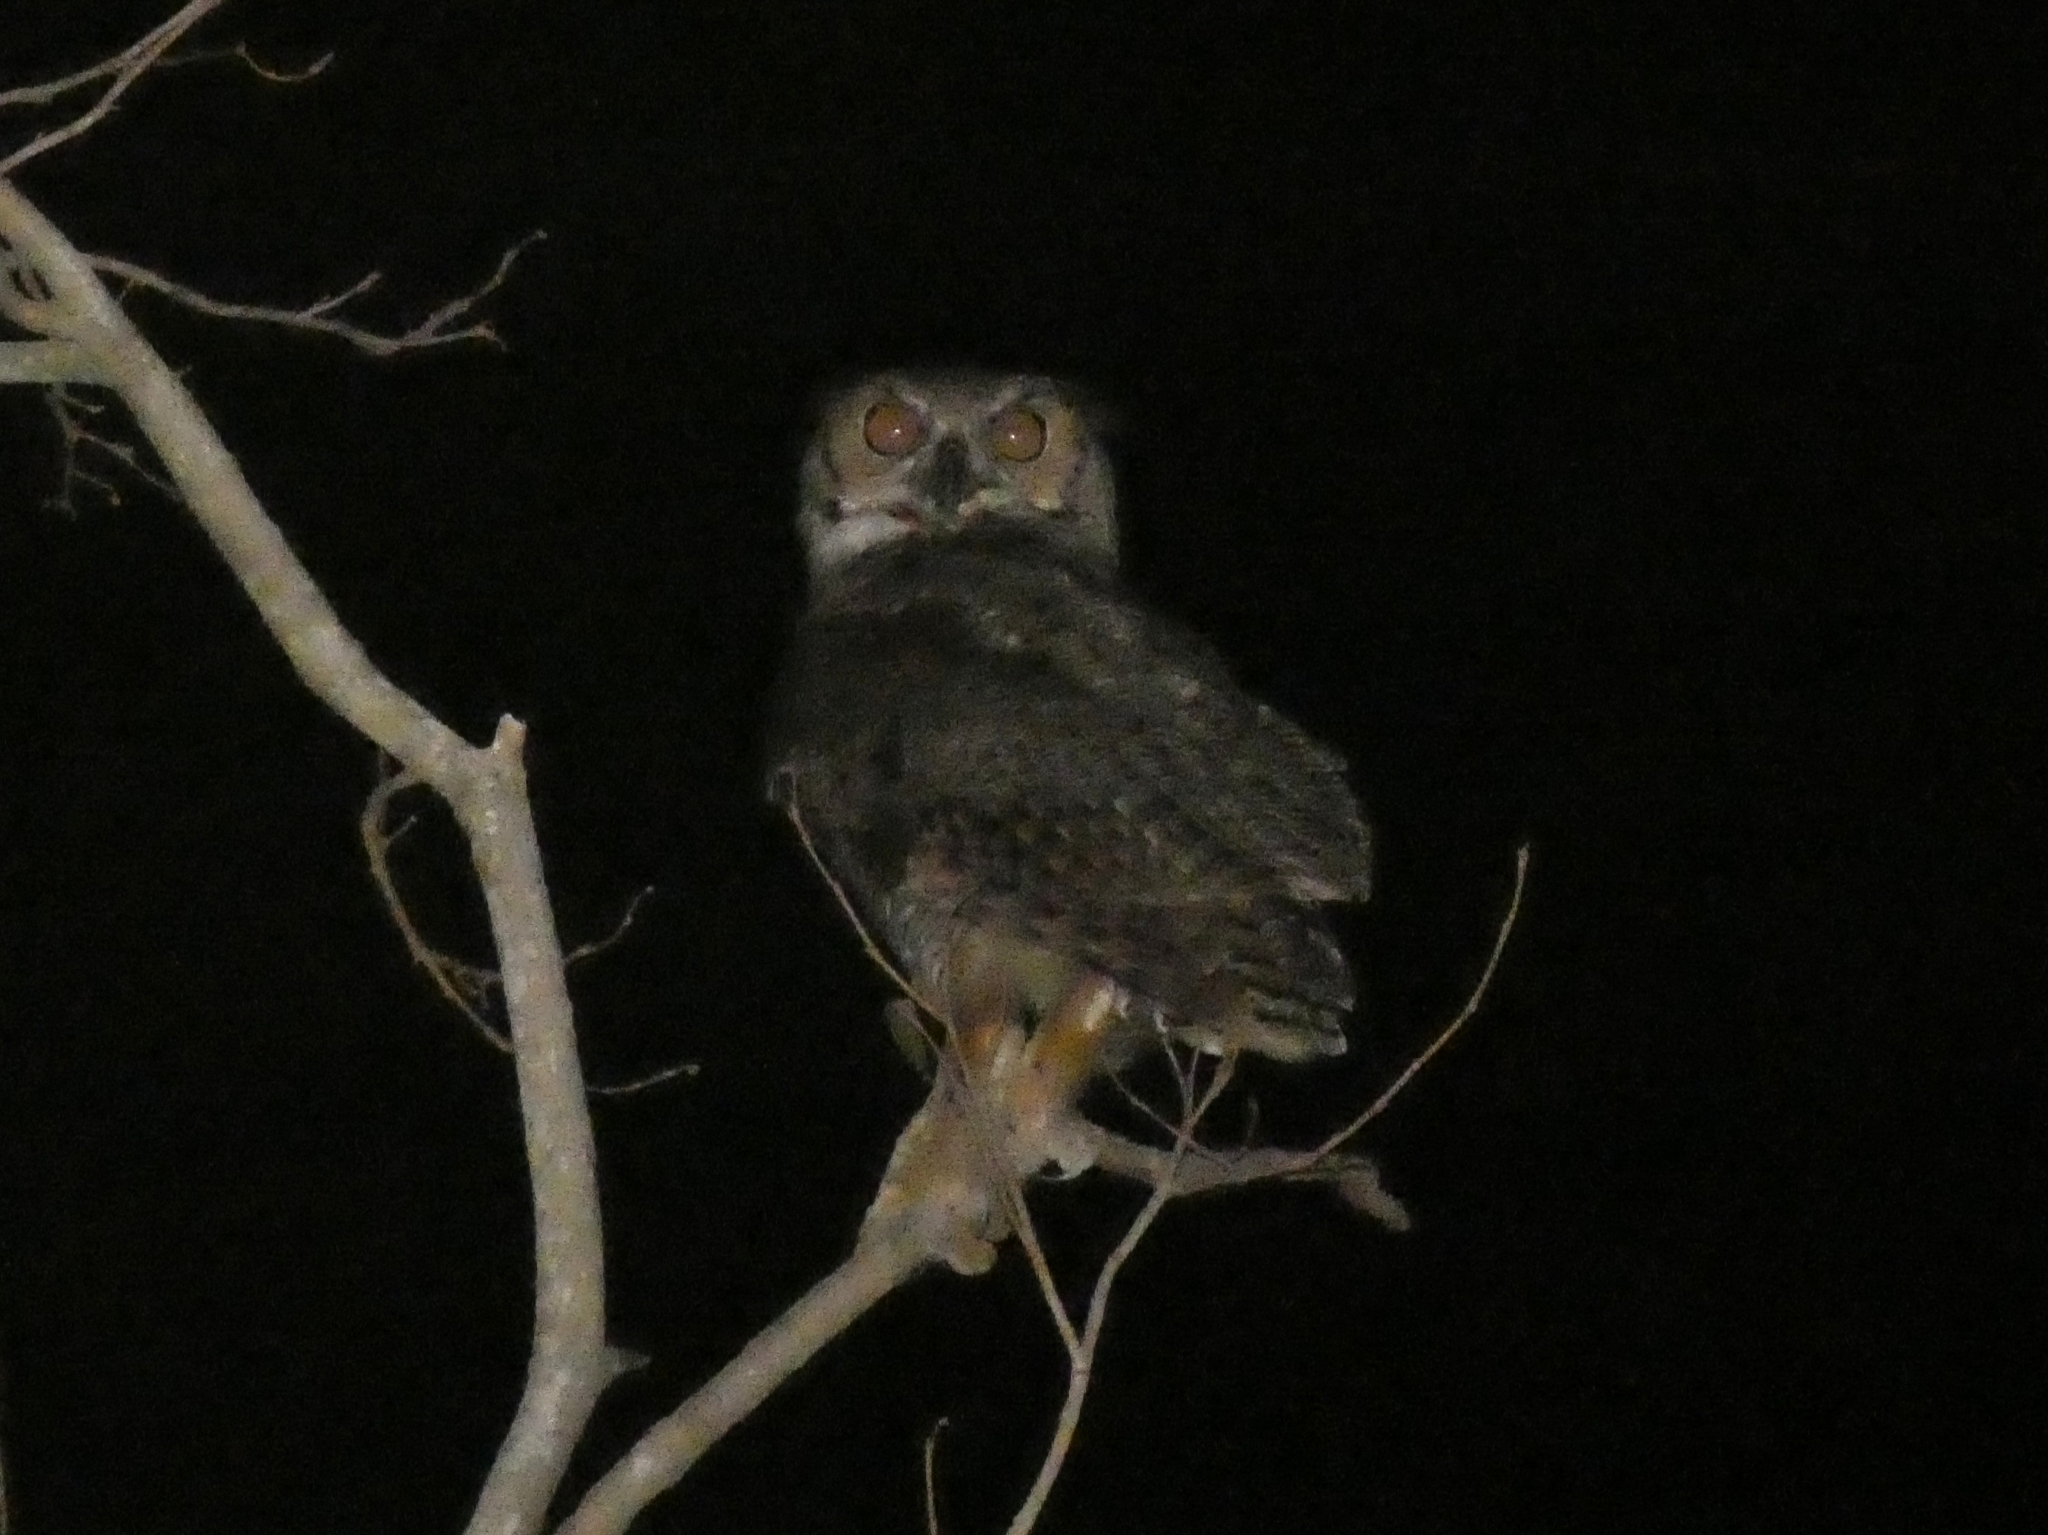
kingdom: Animalia
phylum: Chordata
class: Aves
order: Strigiformes
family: Strigidae
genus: Bubo
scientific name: Bubo virginianus
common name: Great horned owl
